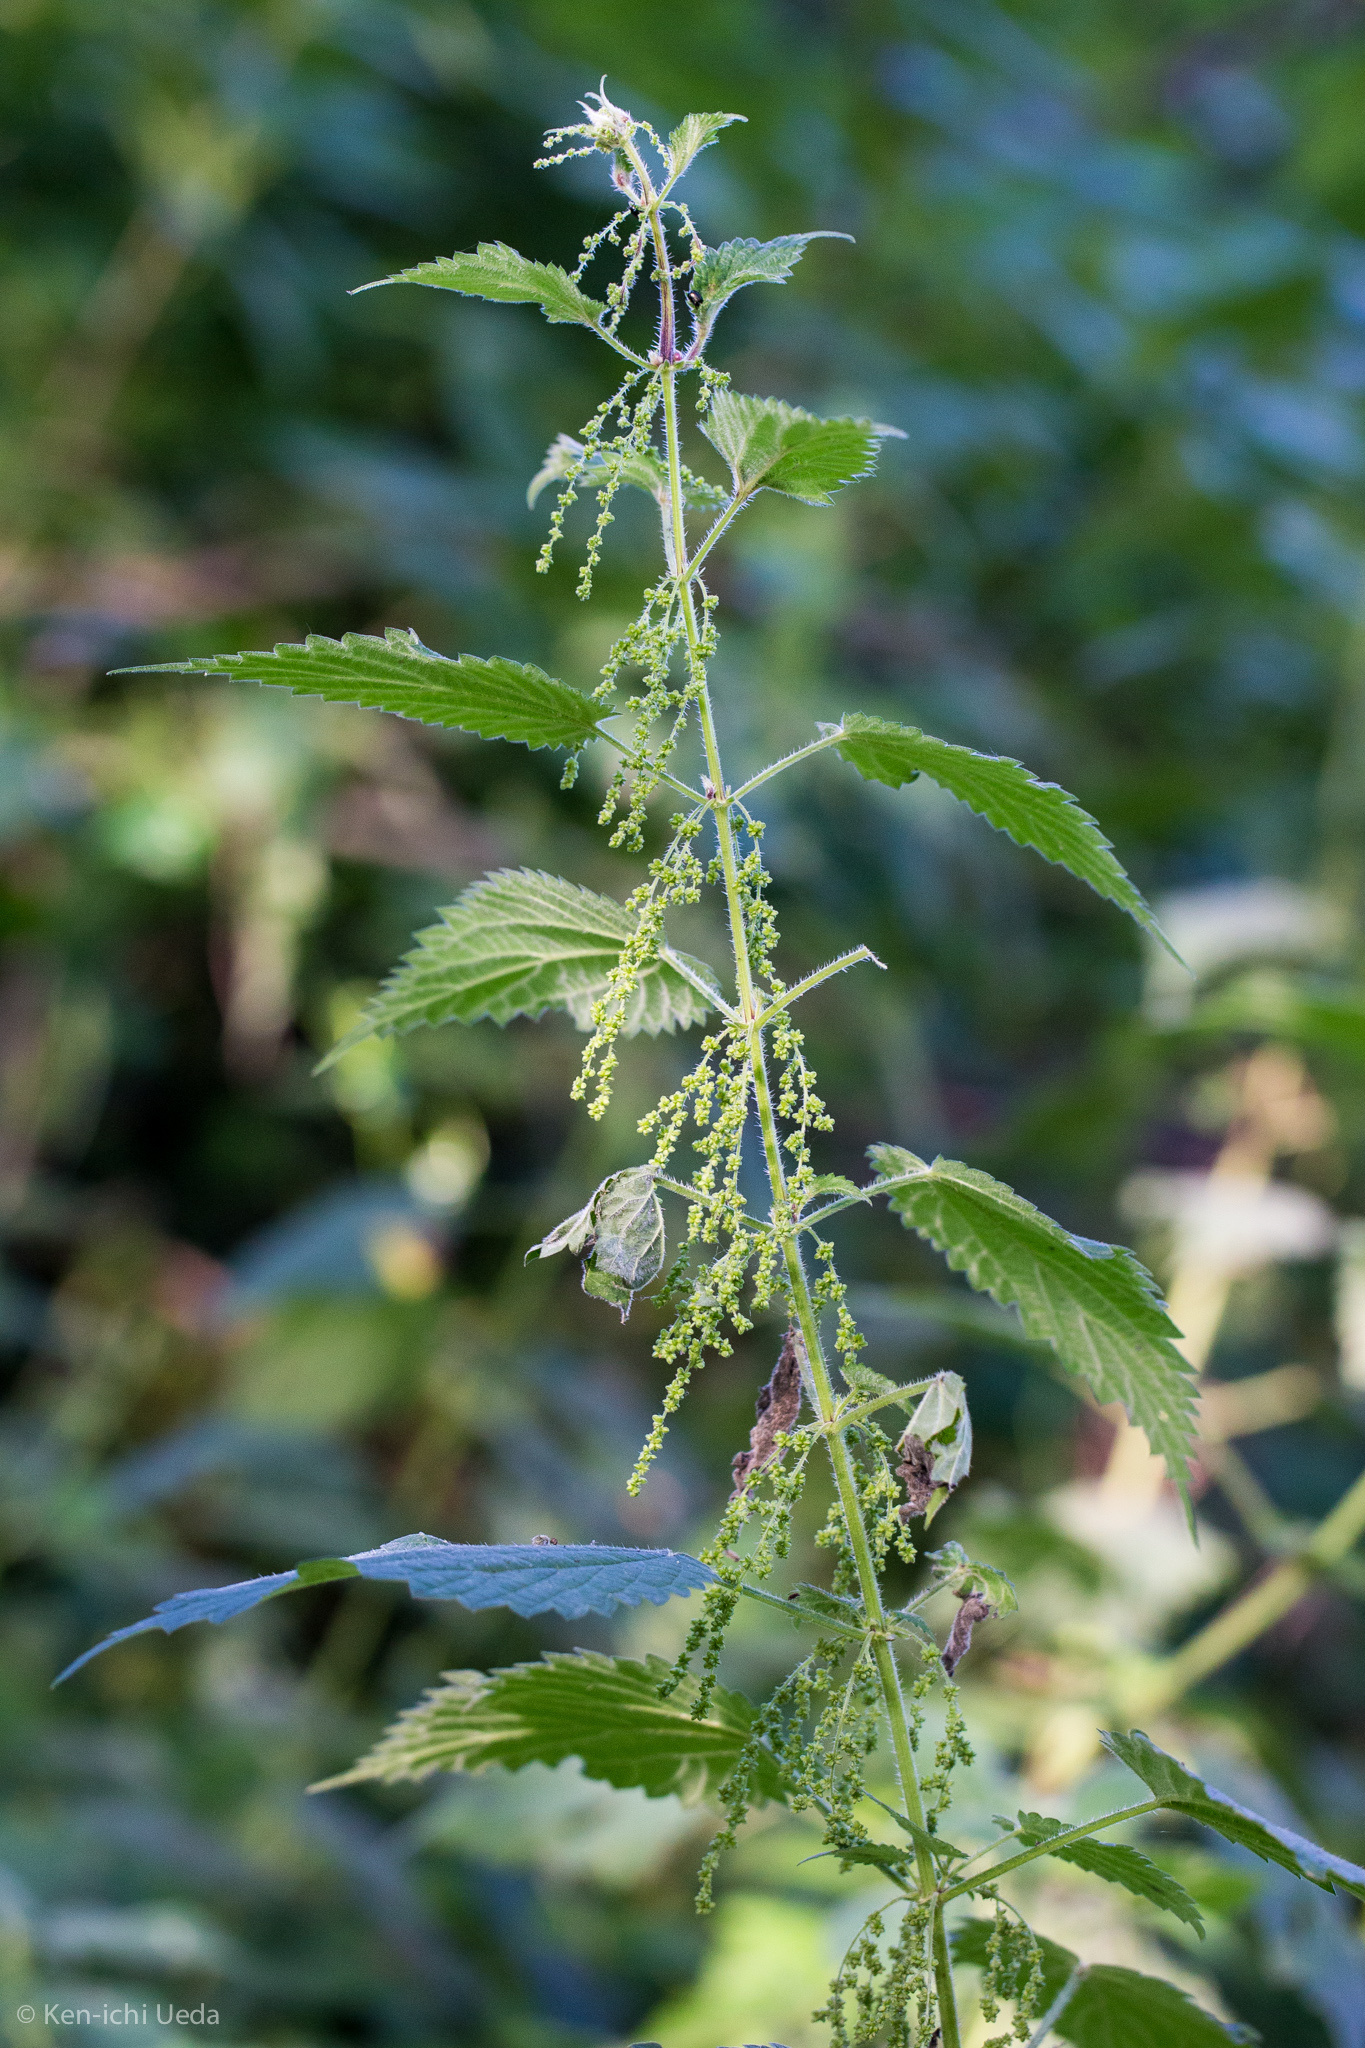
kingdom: Plantae
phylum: Tracheophyta
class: Magnoliopsida
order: Rosales
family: Urticaceae
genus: Urtica
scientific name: Urtica dioica
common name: Common nettle
